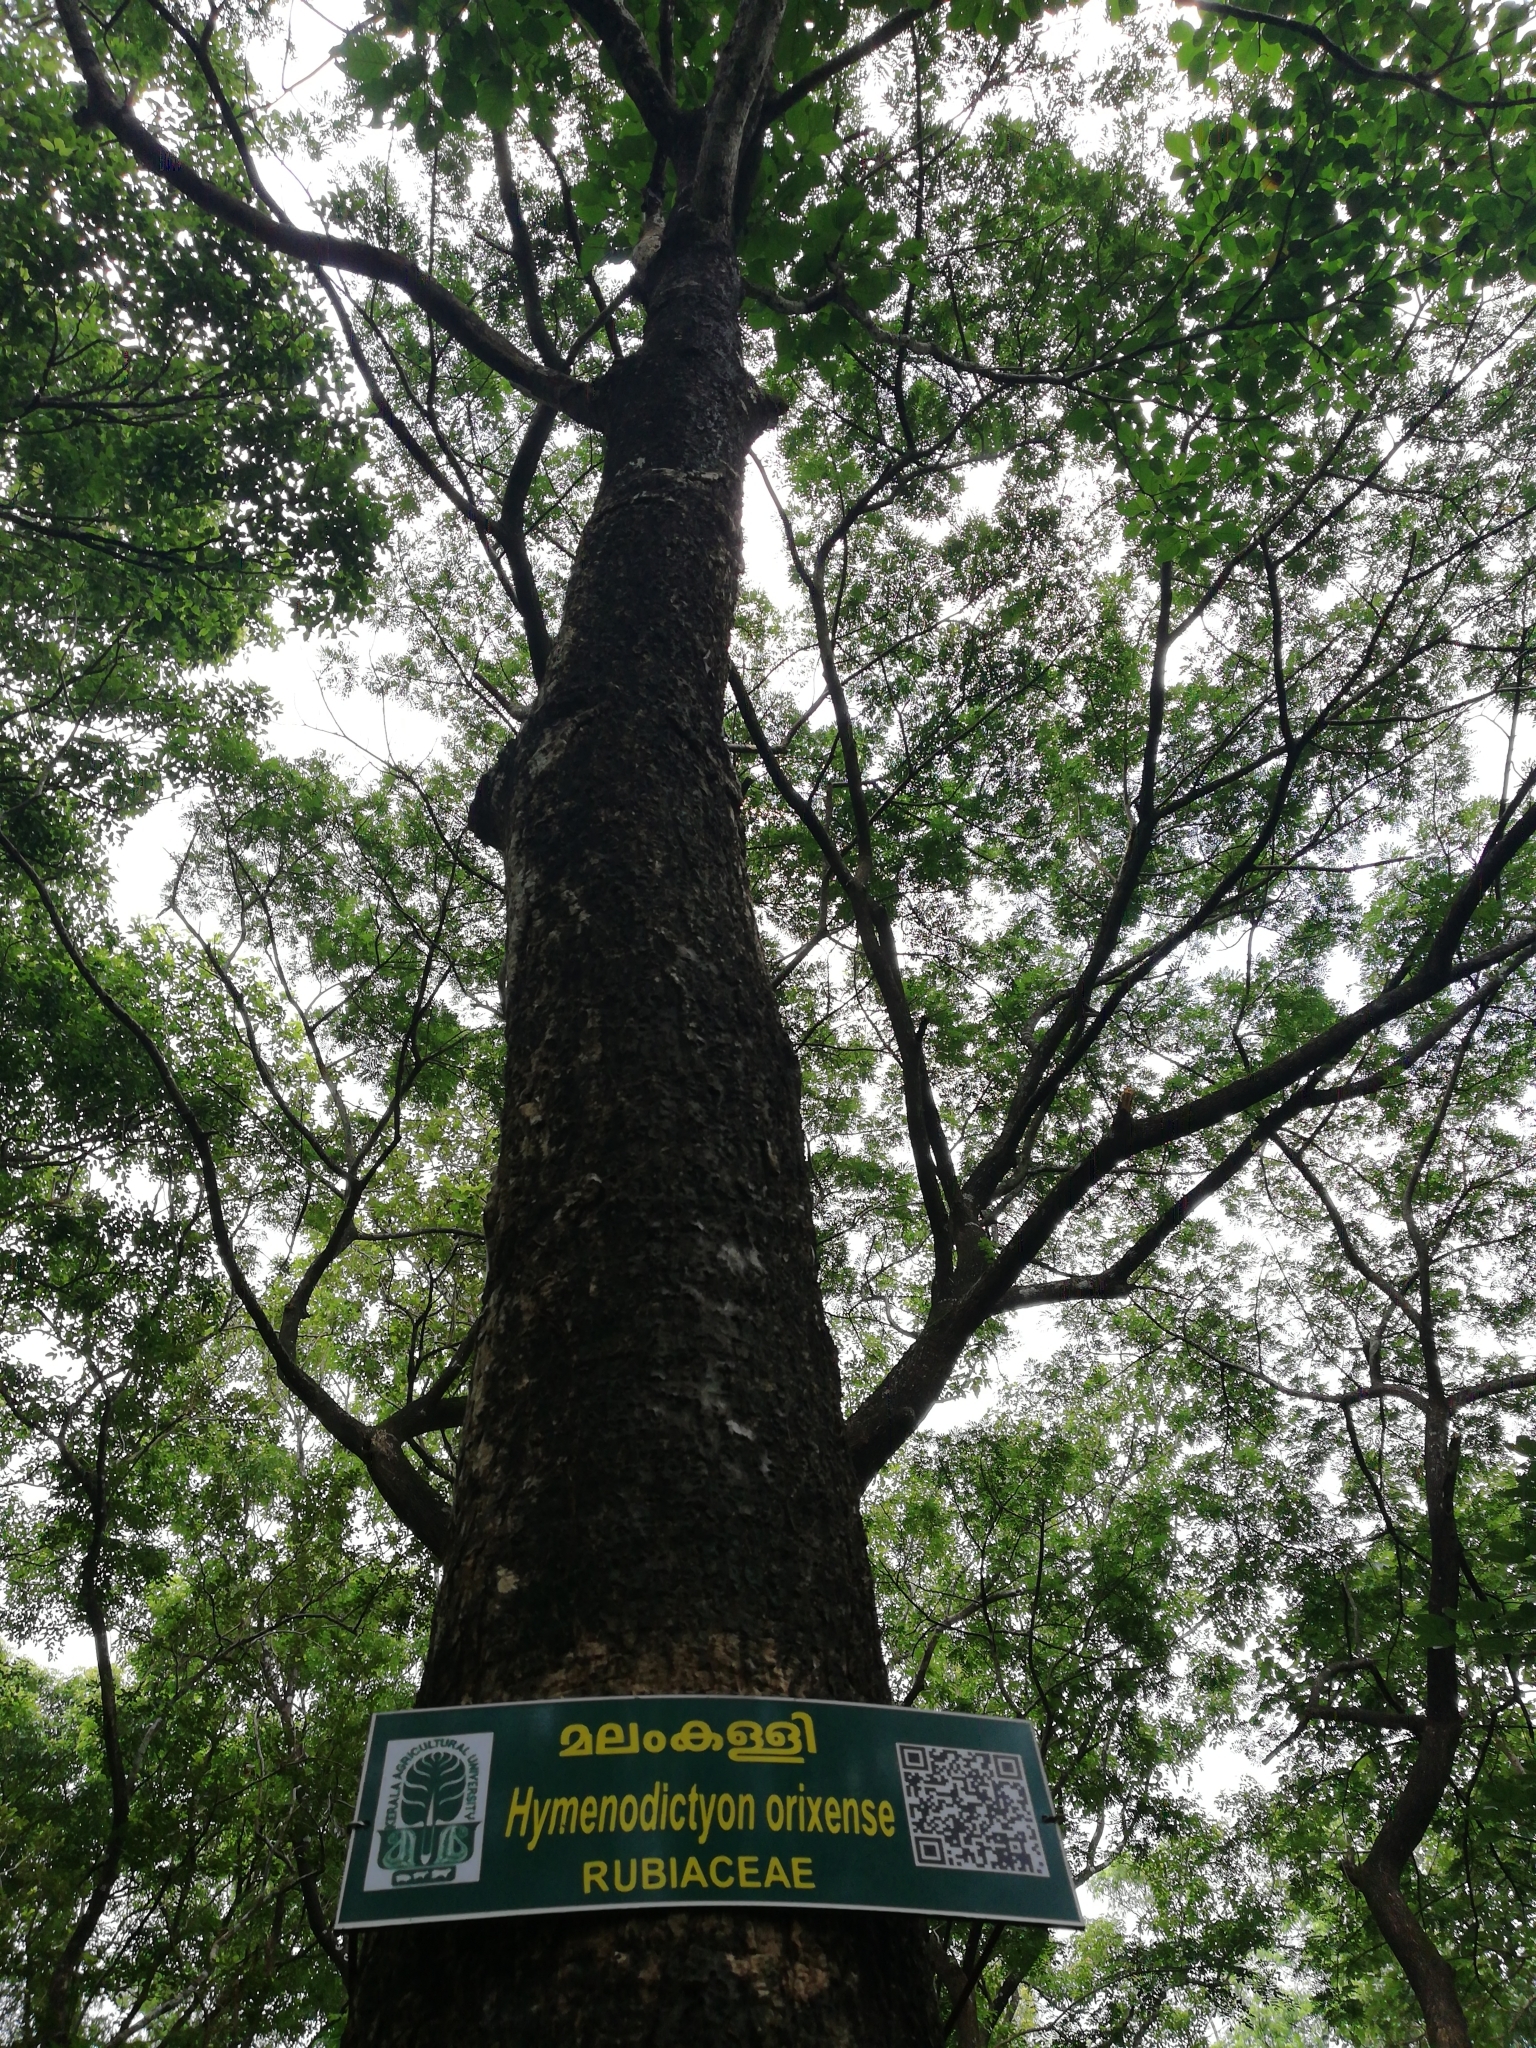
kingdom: Plantae
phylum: Tracheophyta
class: Magnoliopsida
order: Gentianales
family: Rubiaceae
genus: Hymenodictyon
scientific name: Hymenodictyon orixense
